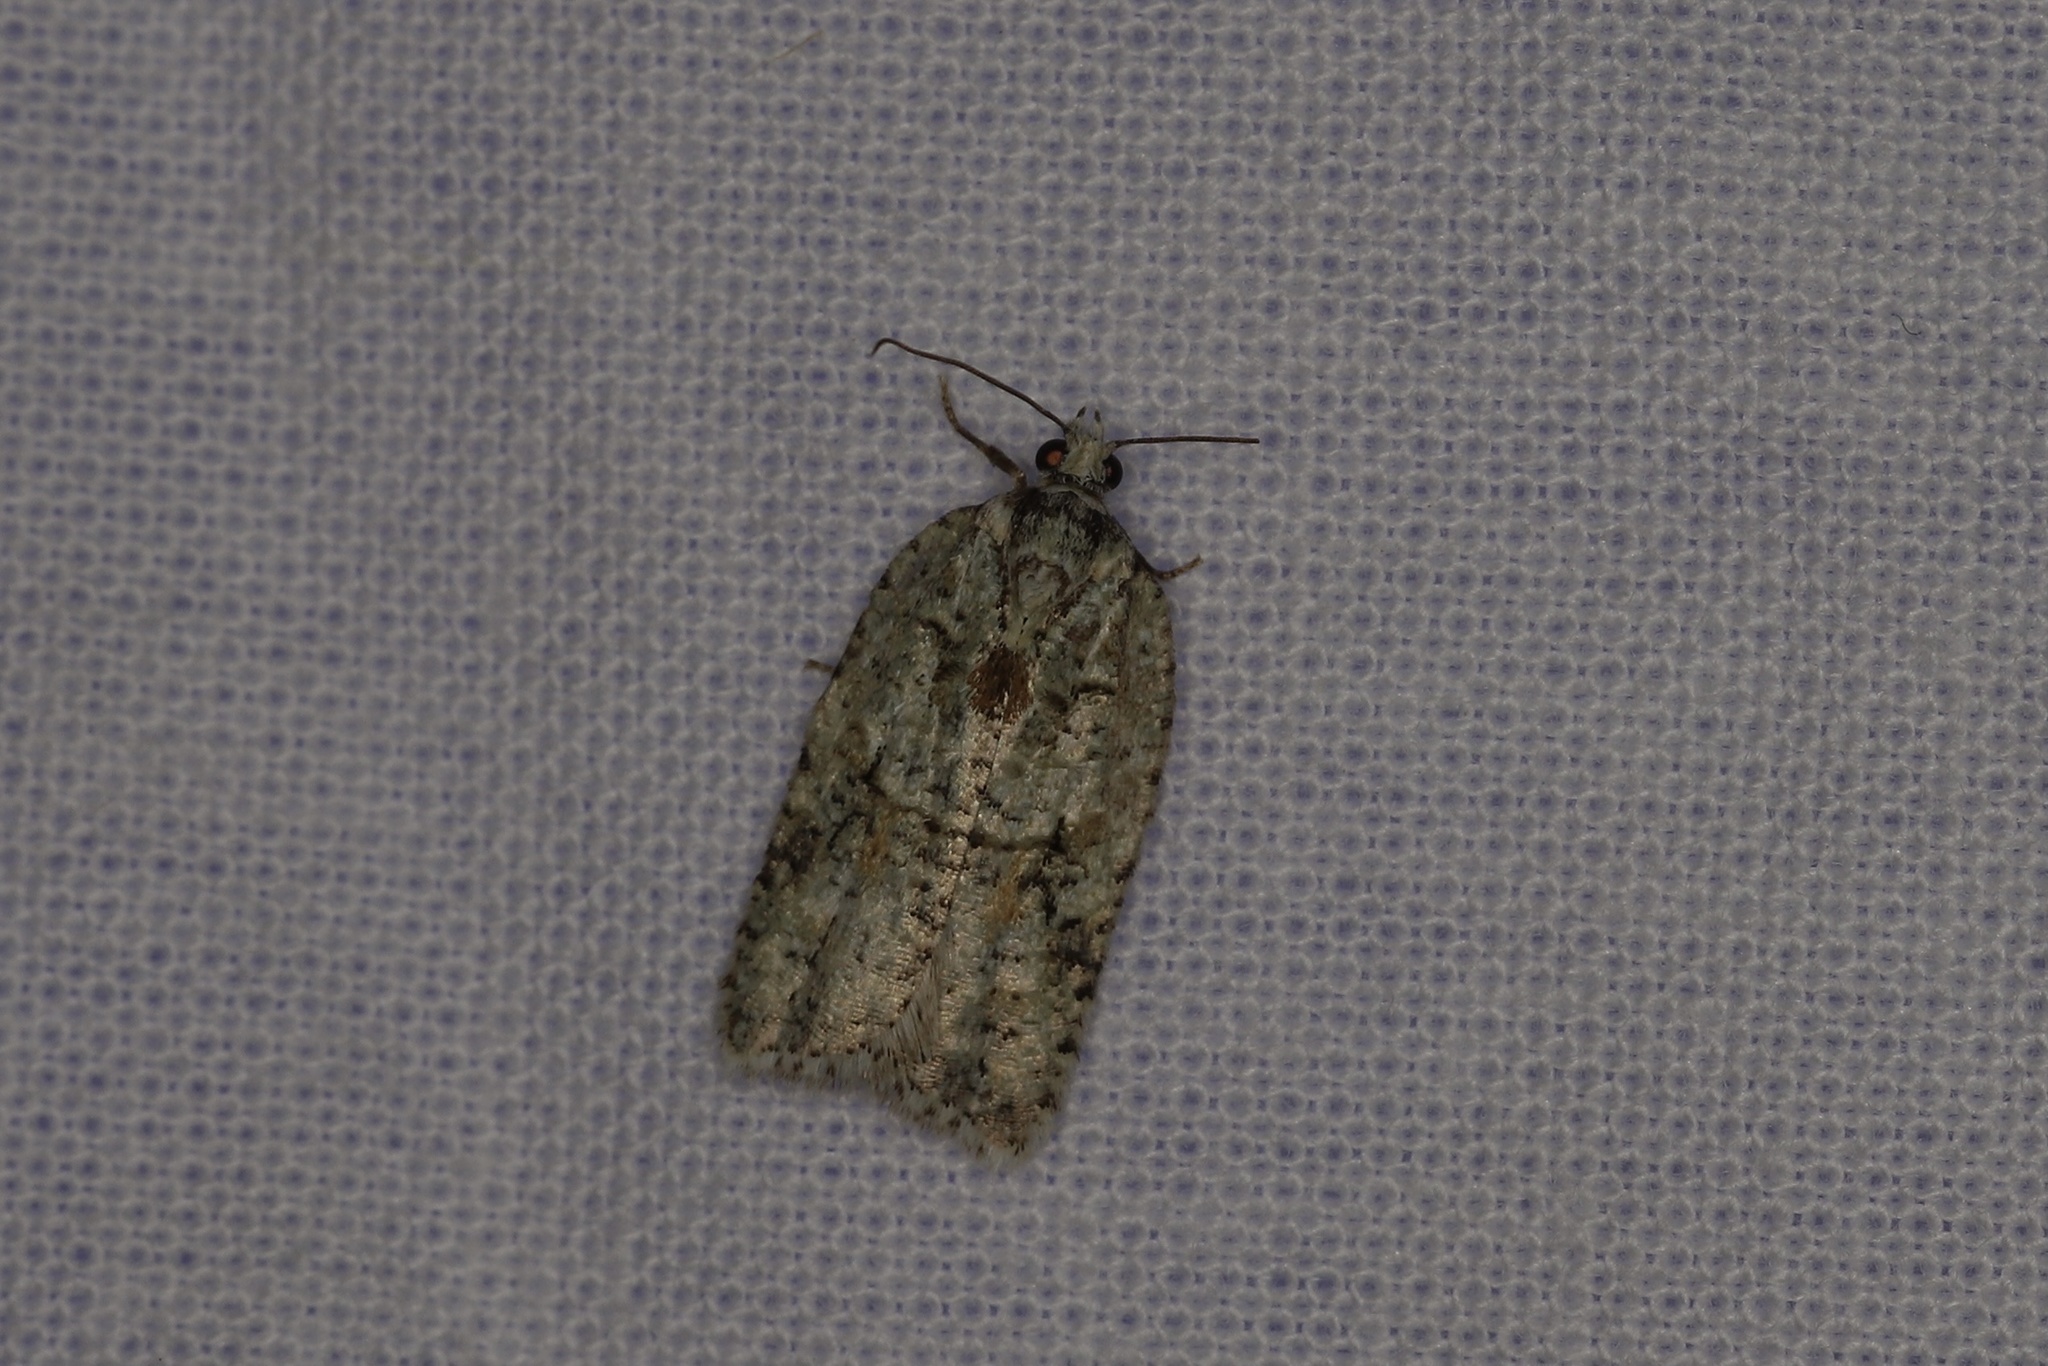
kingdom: Animalia
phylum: Arthropoda
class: Insecta
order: Lepidoptera
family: Tortricidae
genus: Acleris
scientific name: Acleris literana
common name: Lichen button
